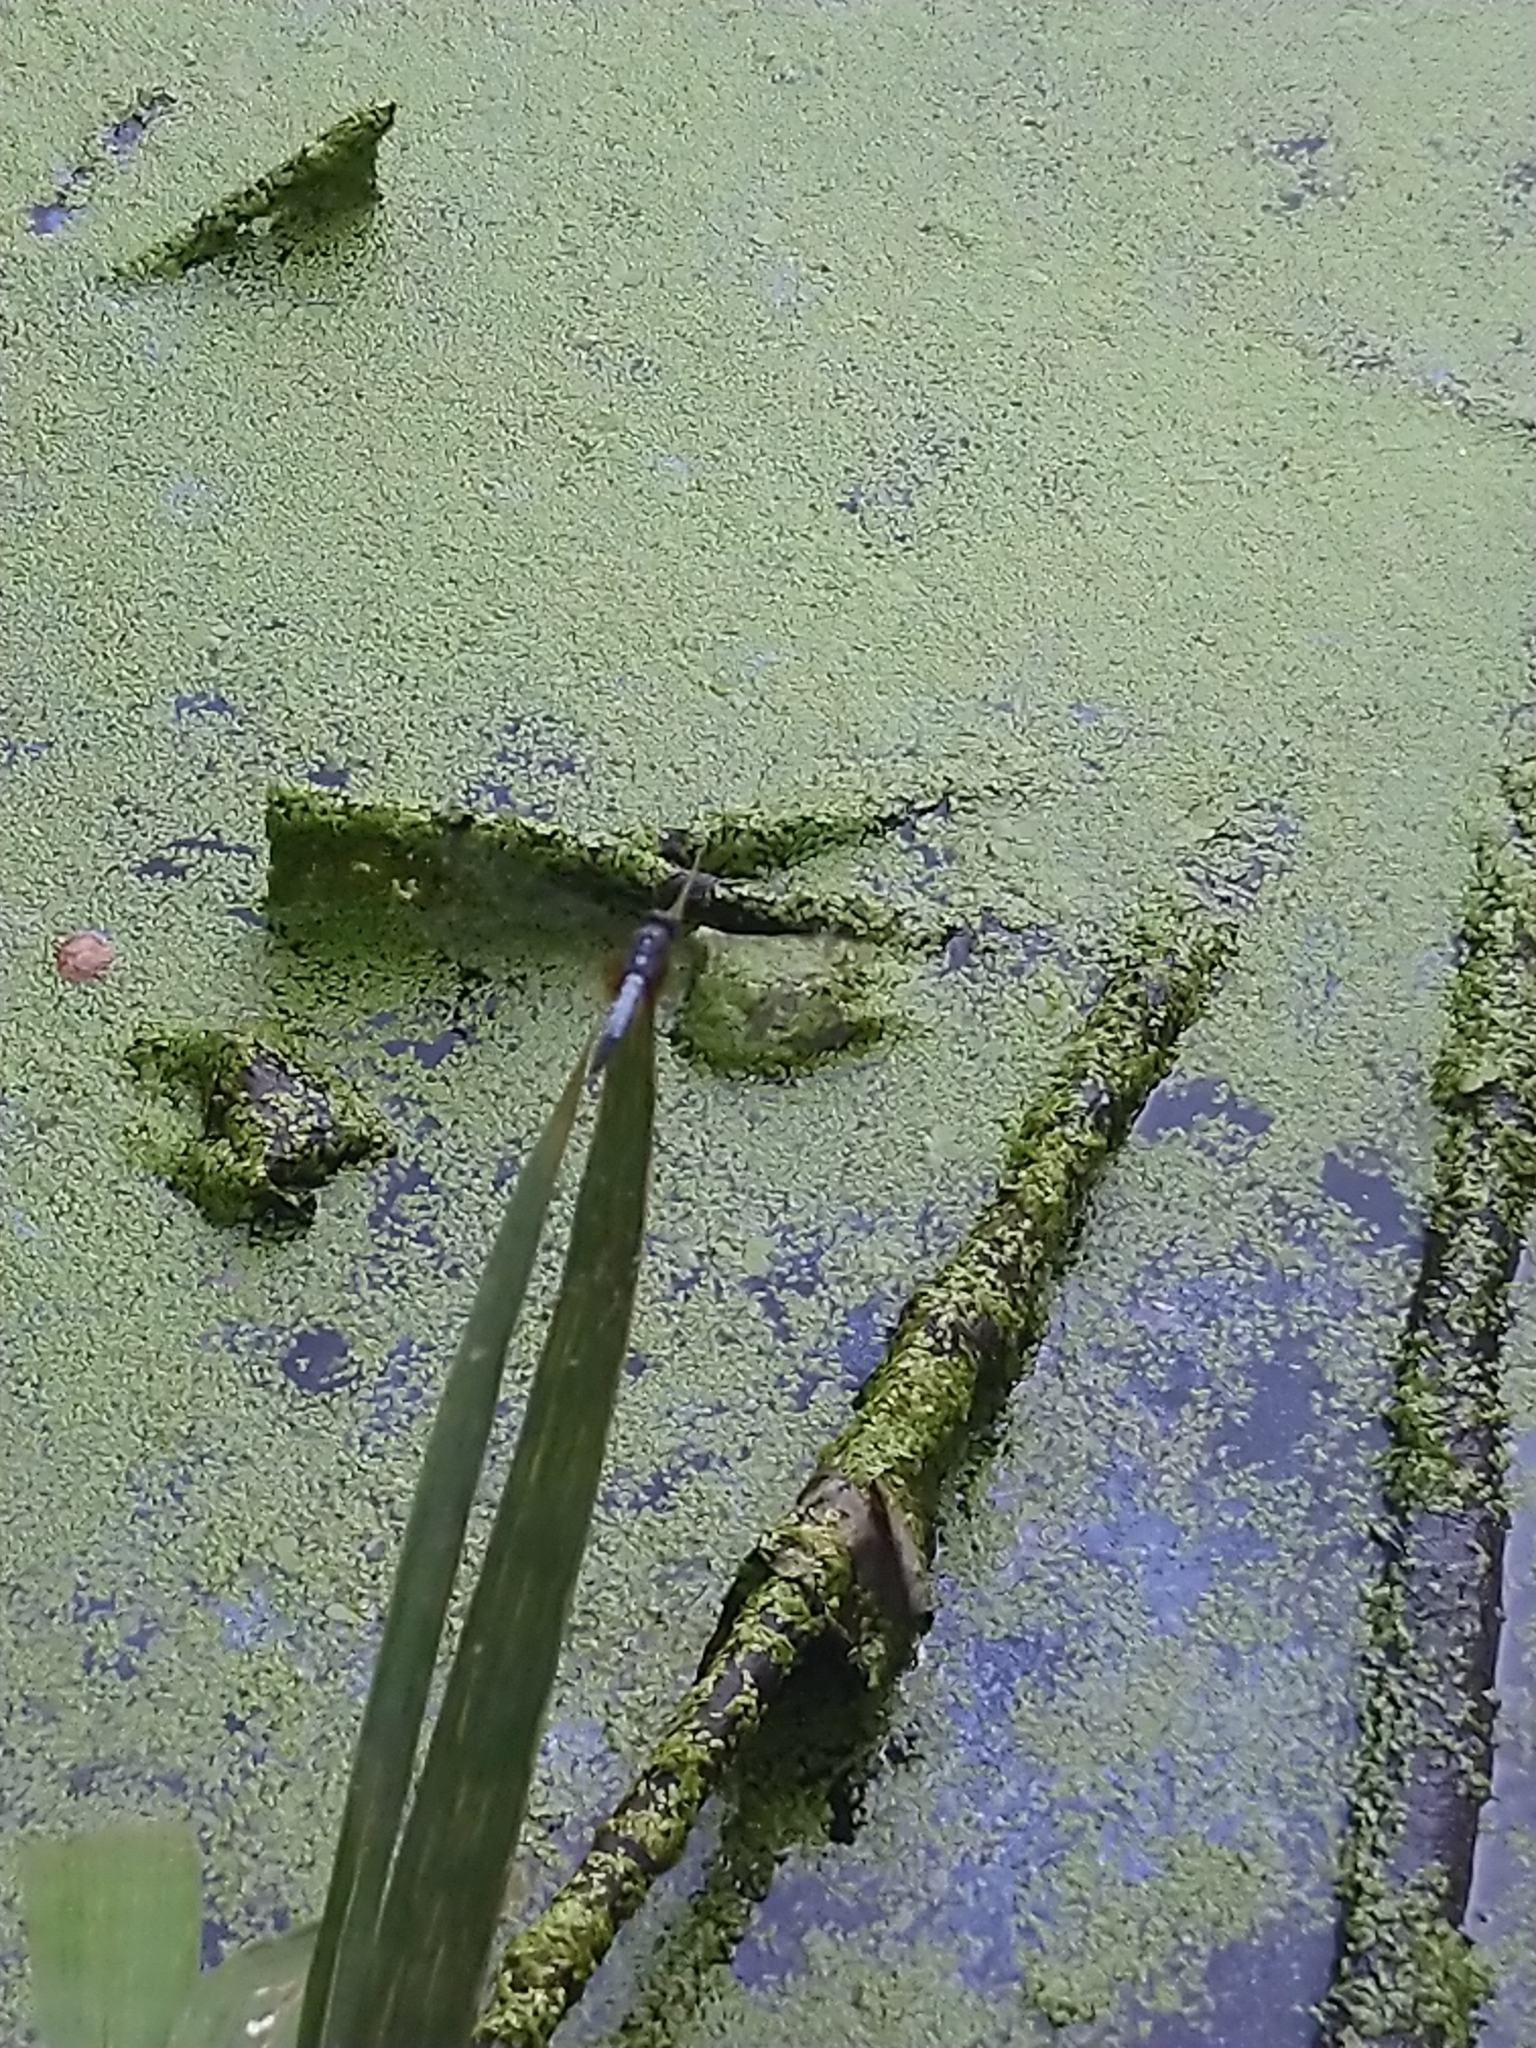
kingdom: Animalia
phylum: Arthropoda
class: Insecta
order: Odonata
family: Libellulidae
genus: Brachydiplax
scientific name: Brachydiplax chalybea
